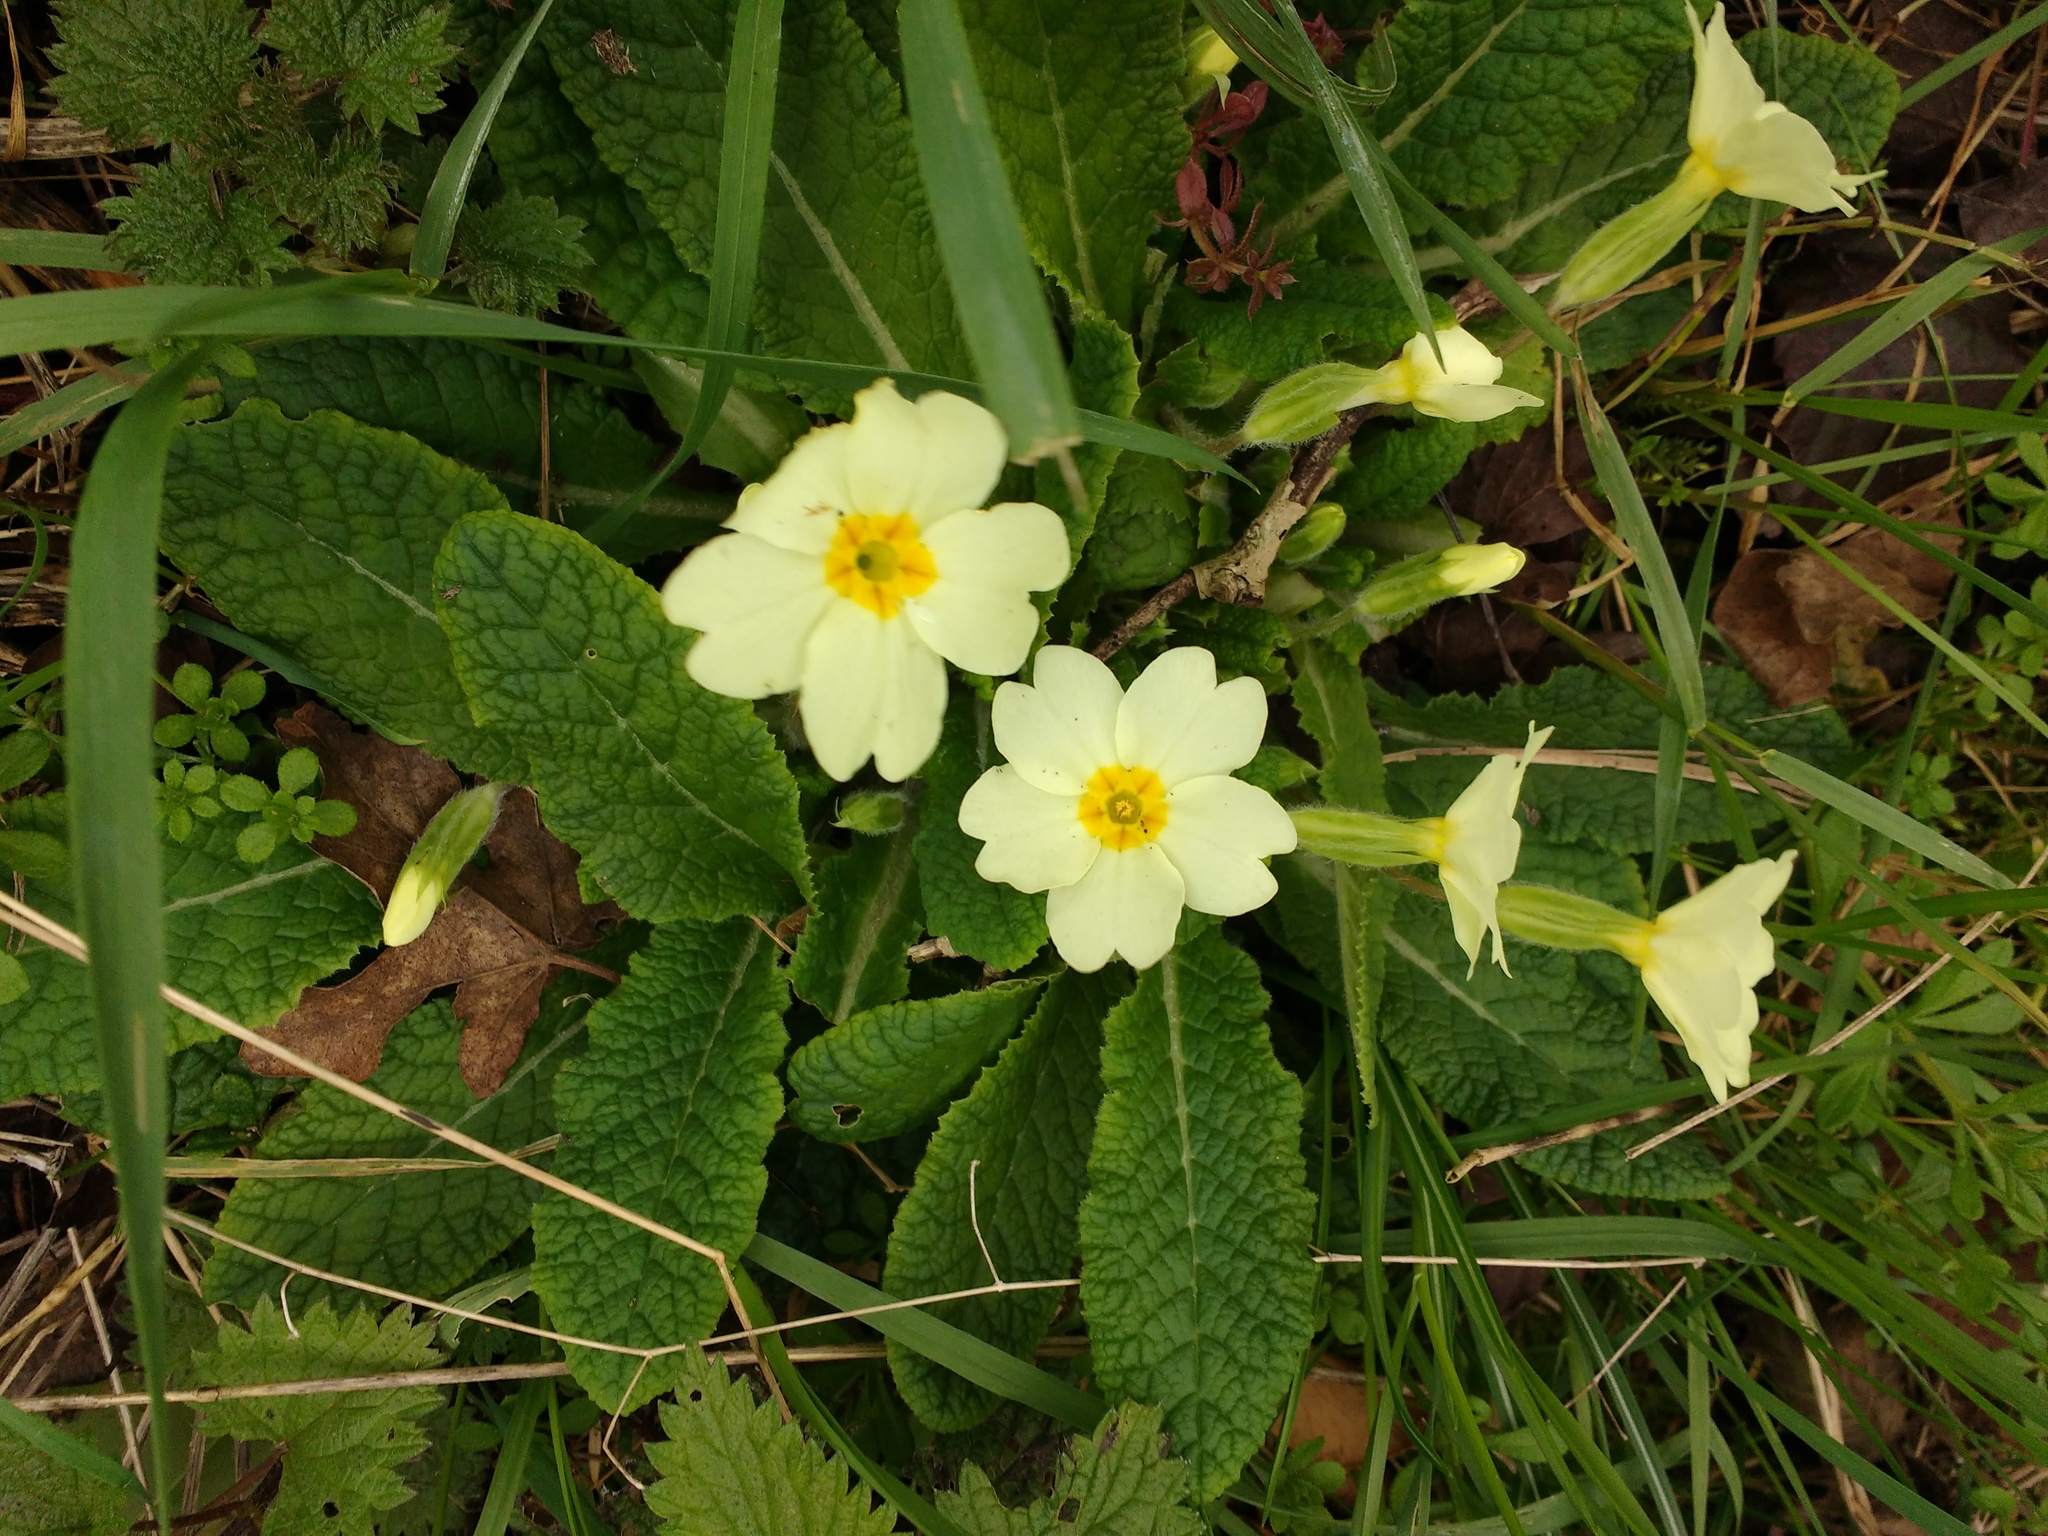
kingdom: Plantae
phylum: Tracheophyta
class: Magnoliopsida
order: Ericales
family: Primulaceae
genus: Primula
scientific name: Primula vulgaris
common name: Primrose
